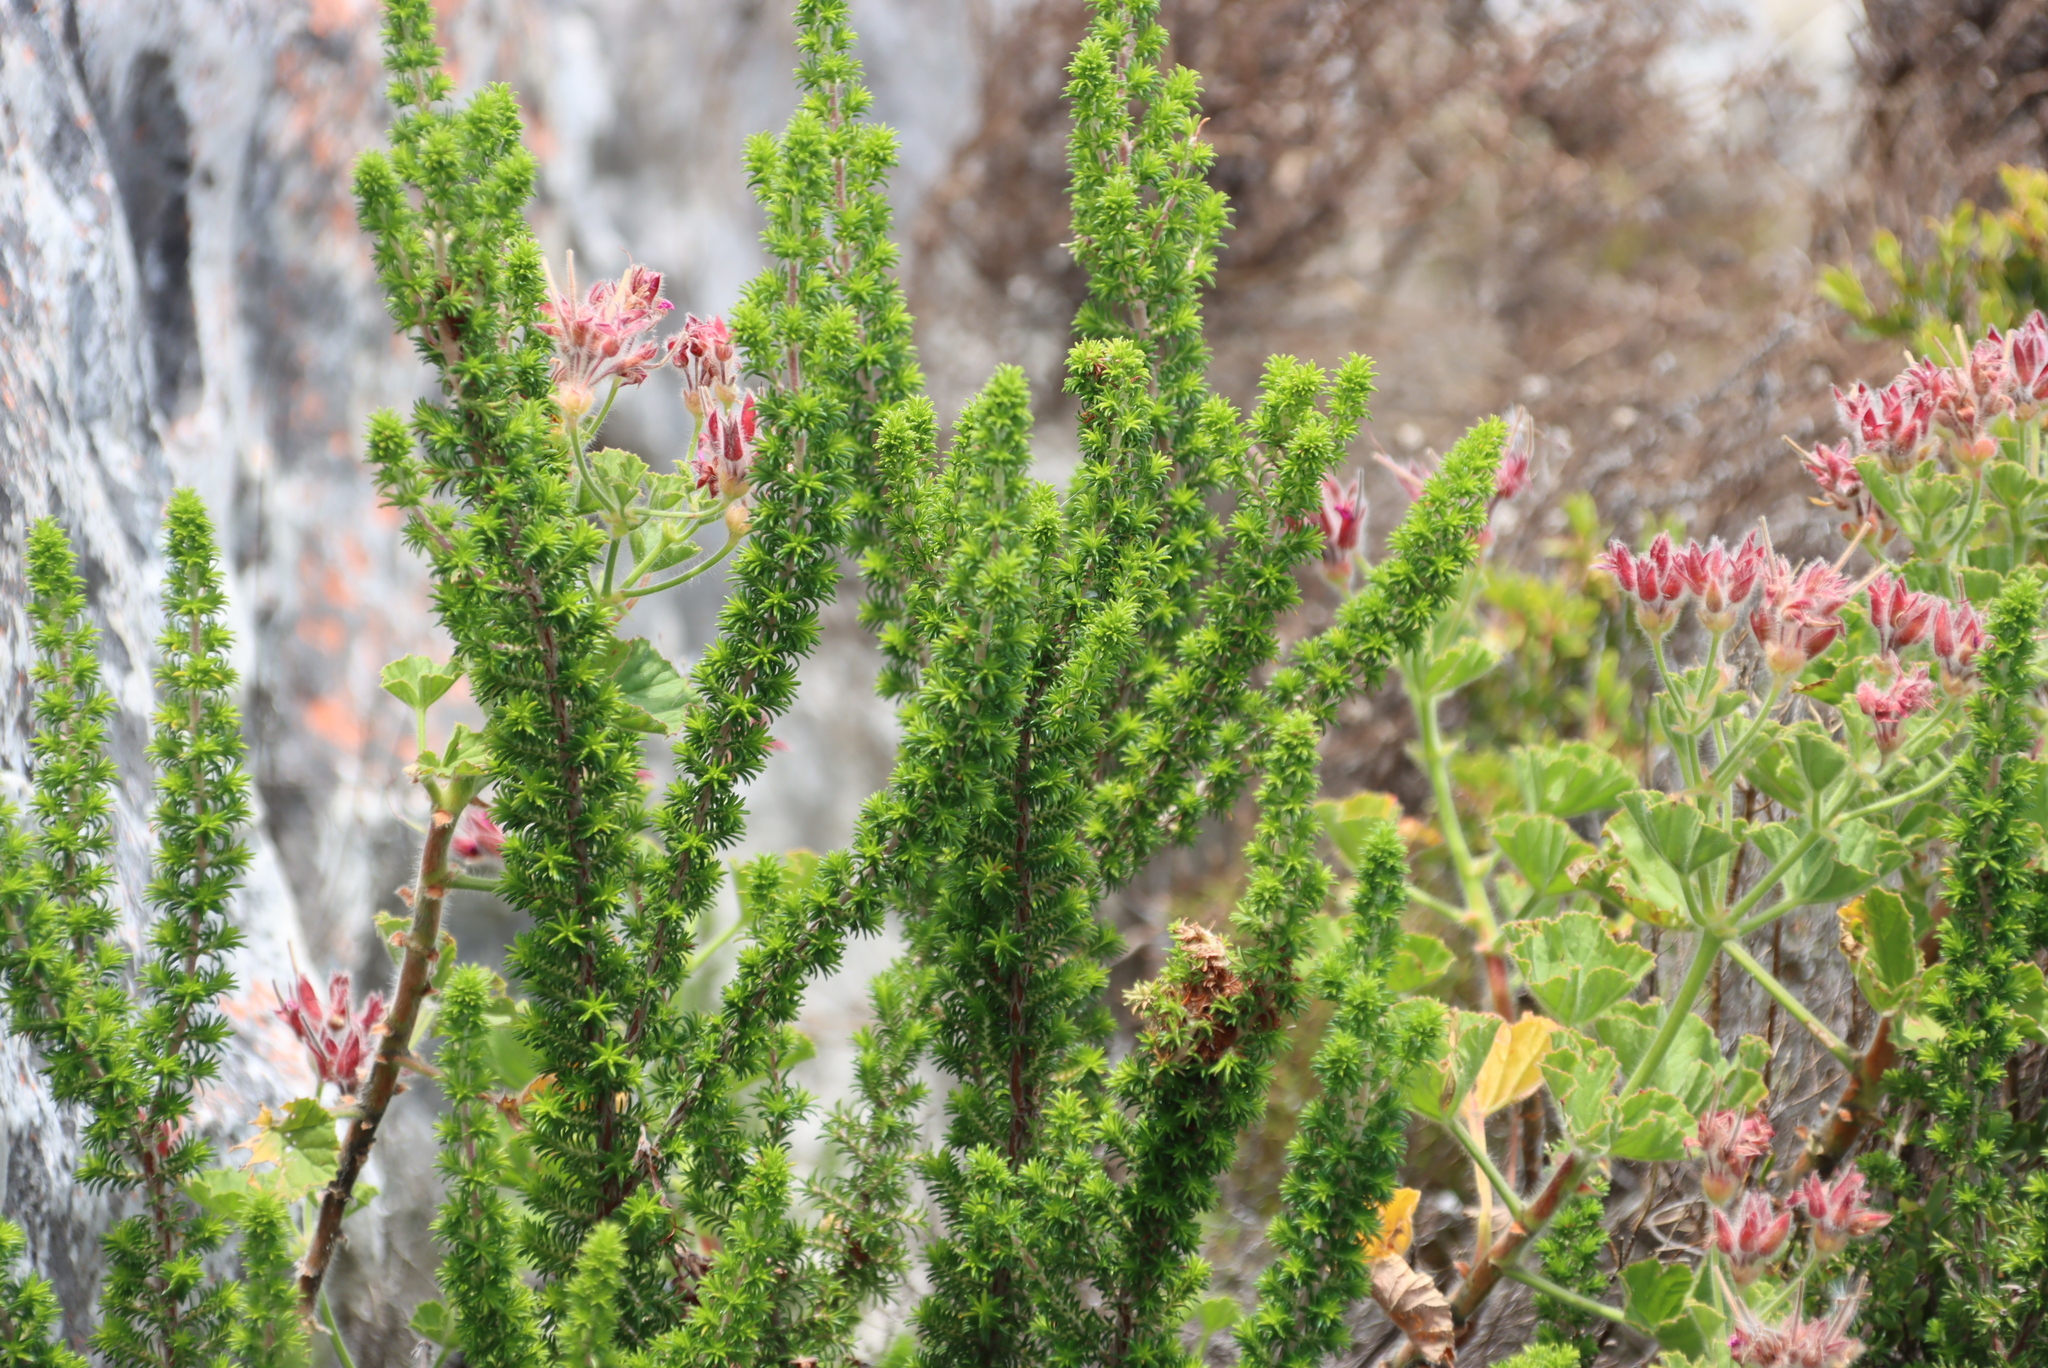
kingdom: Plantae
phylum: Tracheophyta
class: Magnoliopsida
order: Ericales
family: Ericaceae
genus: Erica
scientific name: Erica coccinea
